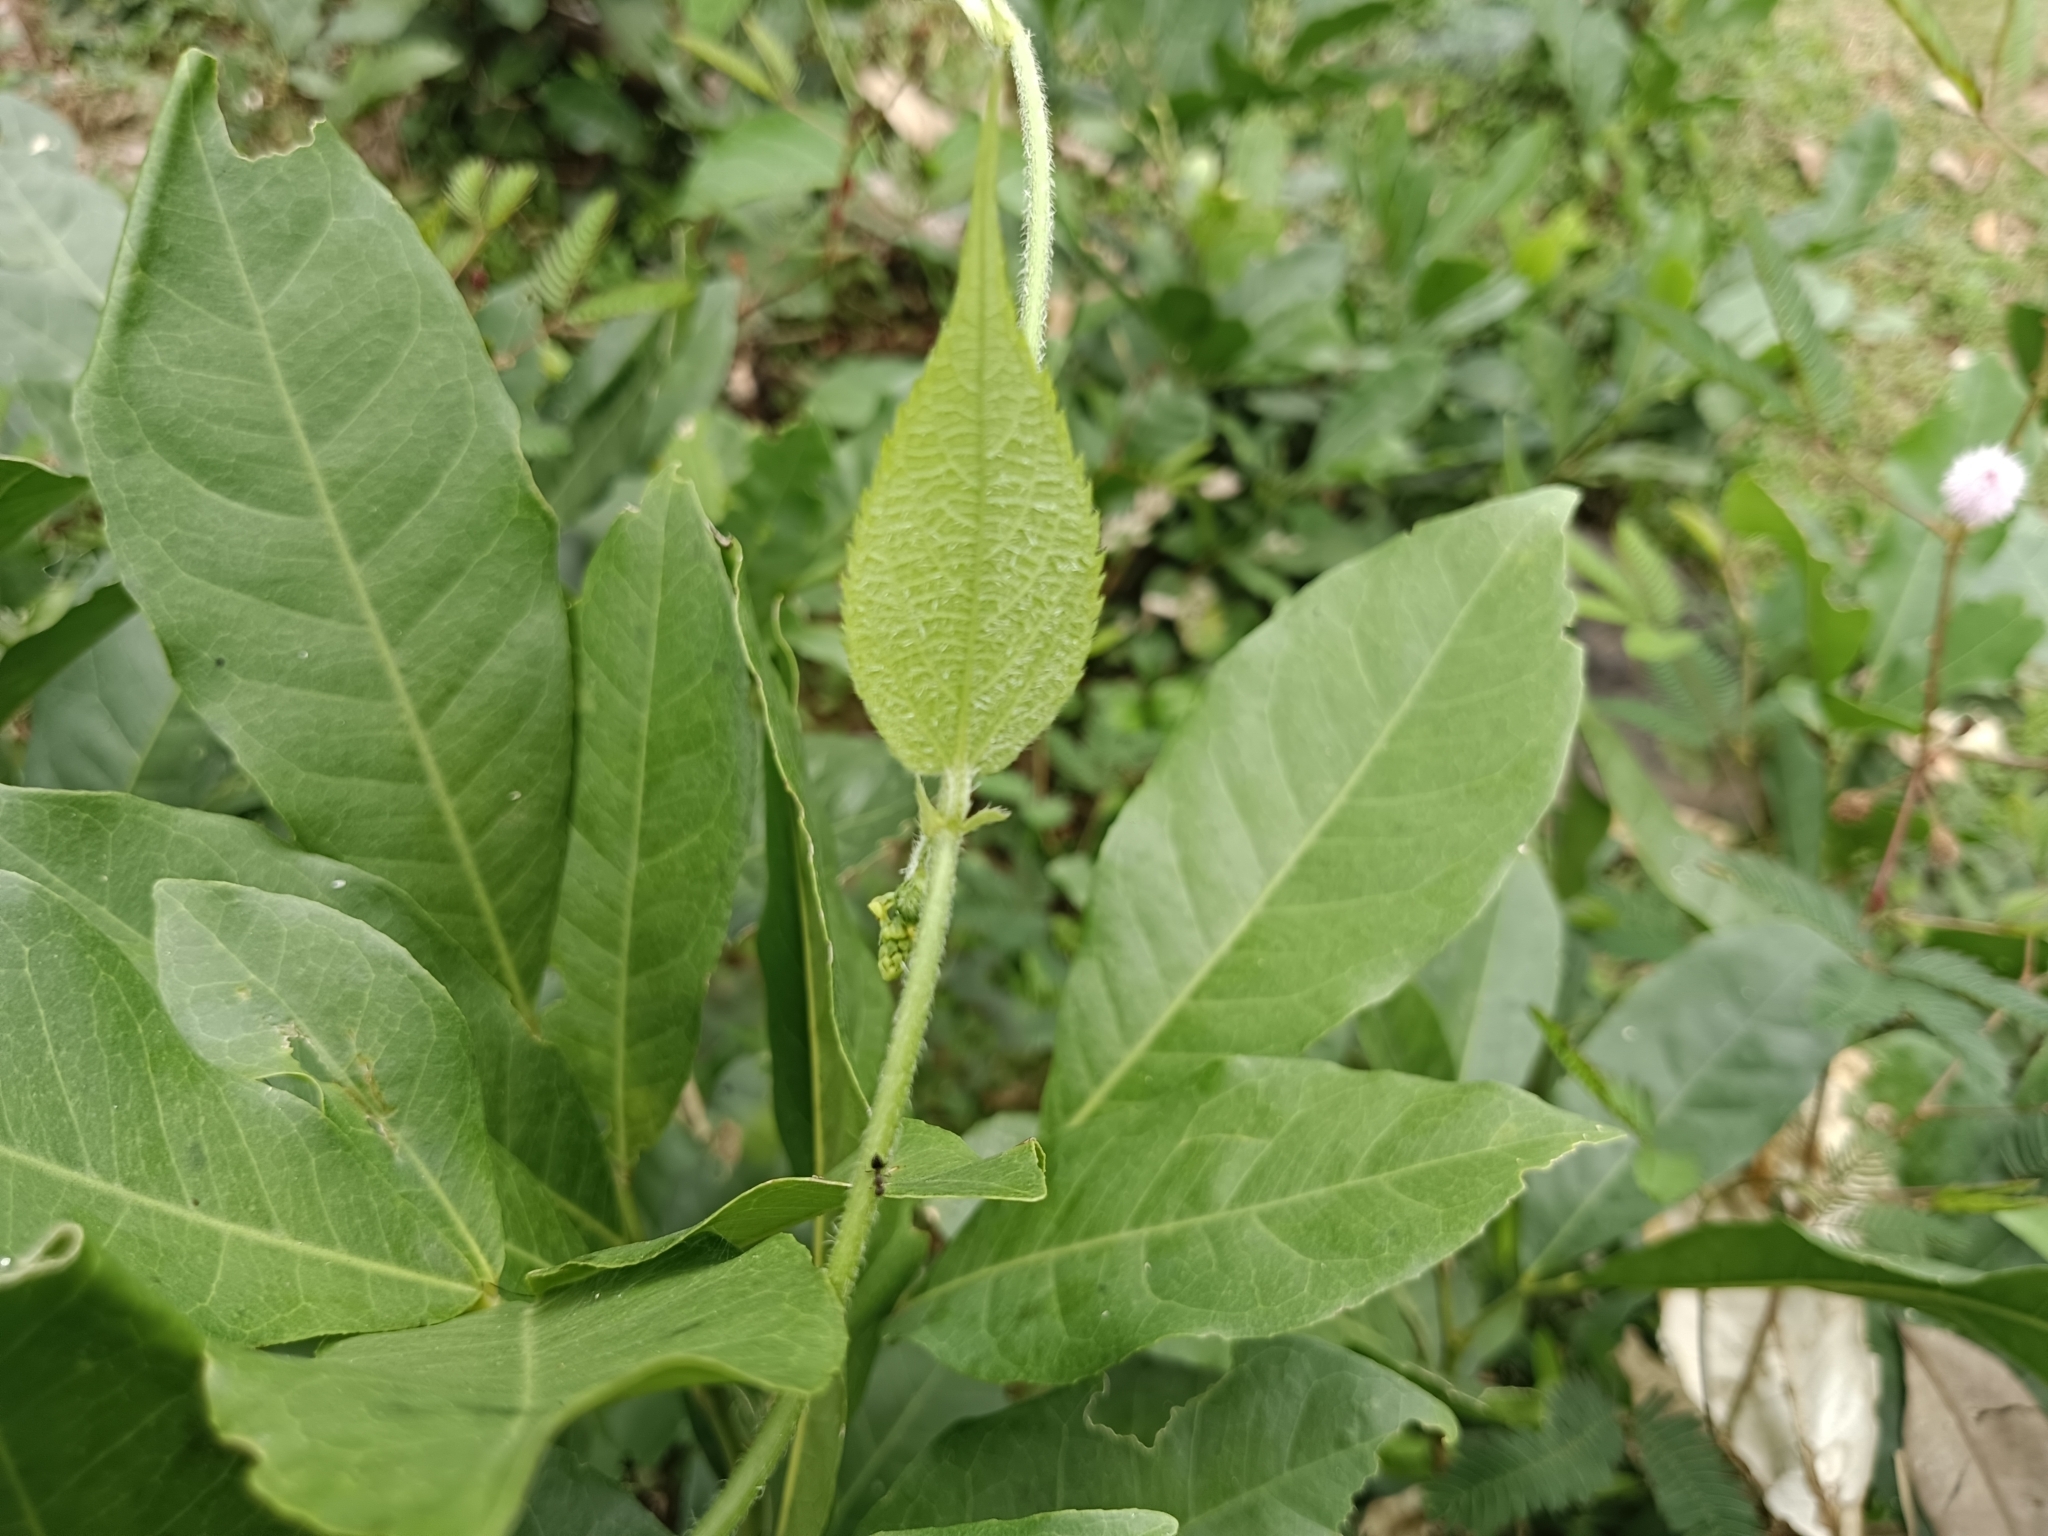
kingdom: Plantae
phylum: Tracheophyta
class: Magnoliopsida
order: Malpighiales
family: Euphorbiaceae
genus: Tragia
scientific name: Tragia involucrata
